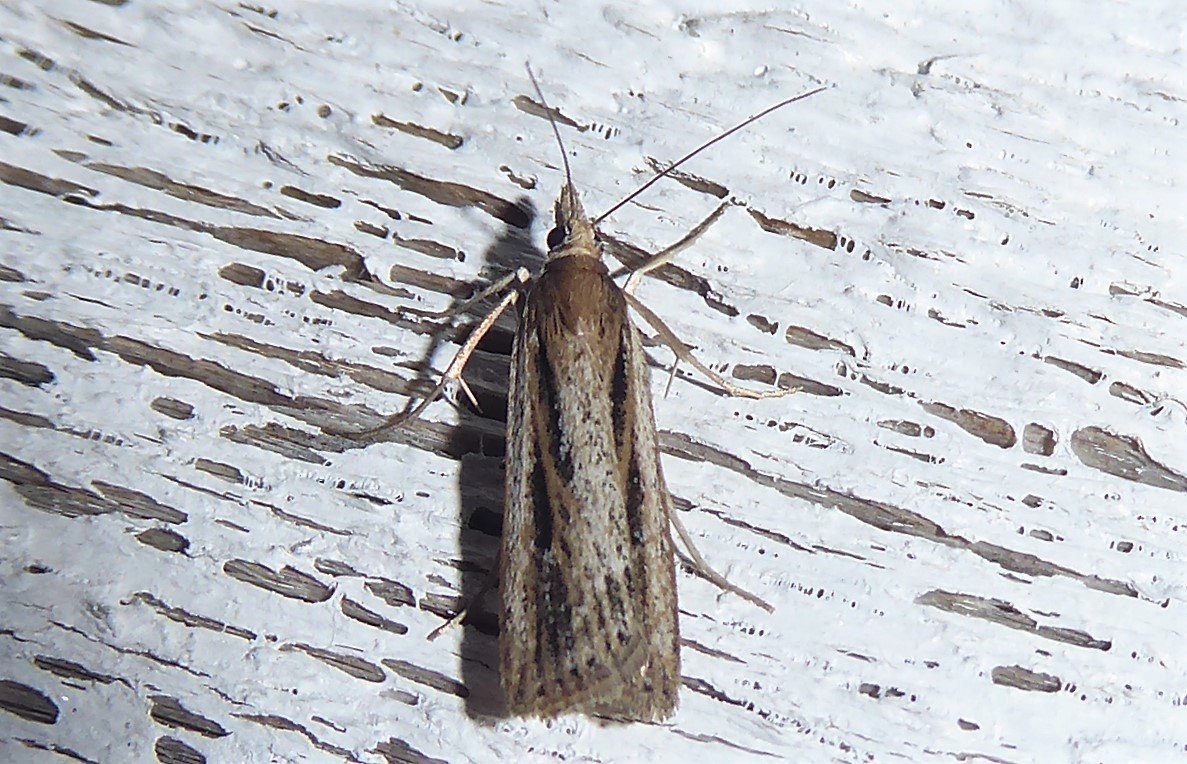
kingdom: Animalia
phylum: Arthropoda
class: Insecta
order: Lepidoptera
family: Crambidae
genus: Eudonia
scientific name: Eudonia sabulosella
